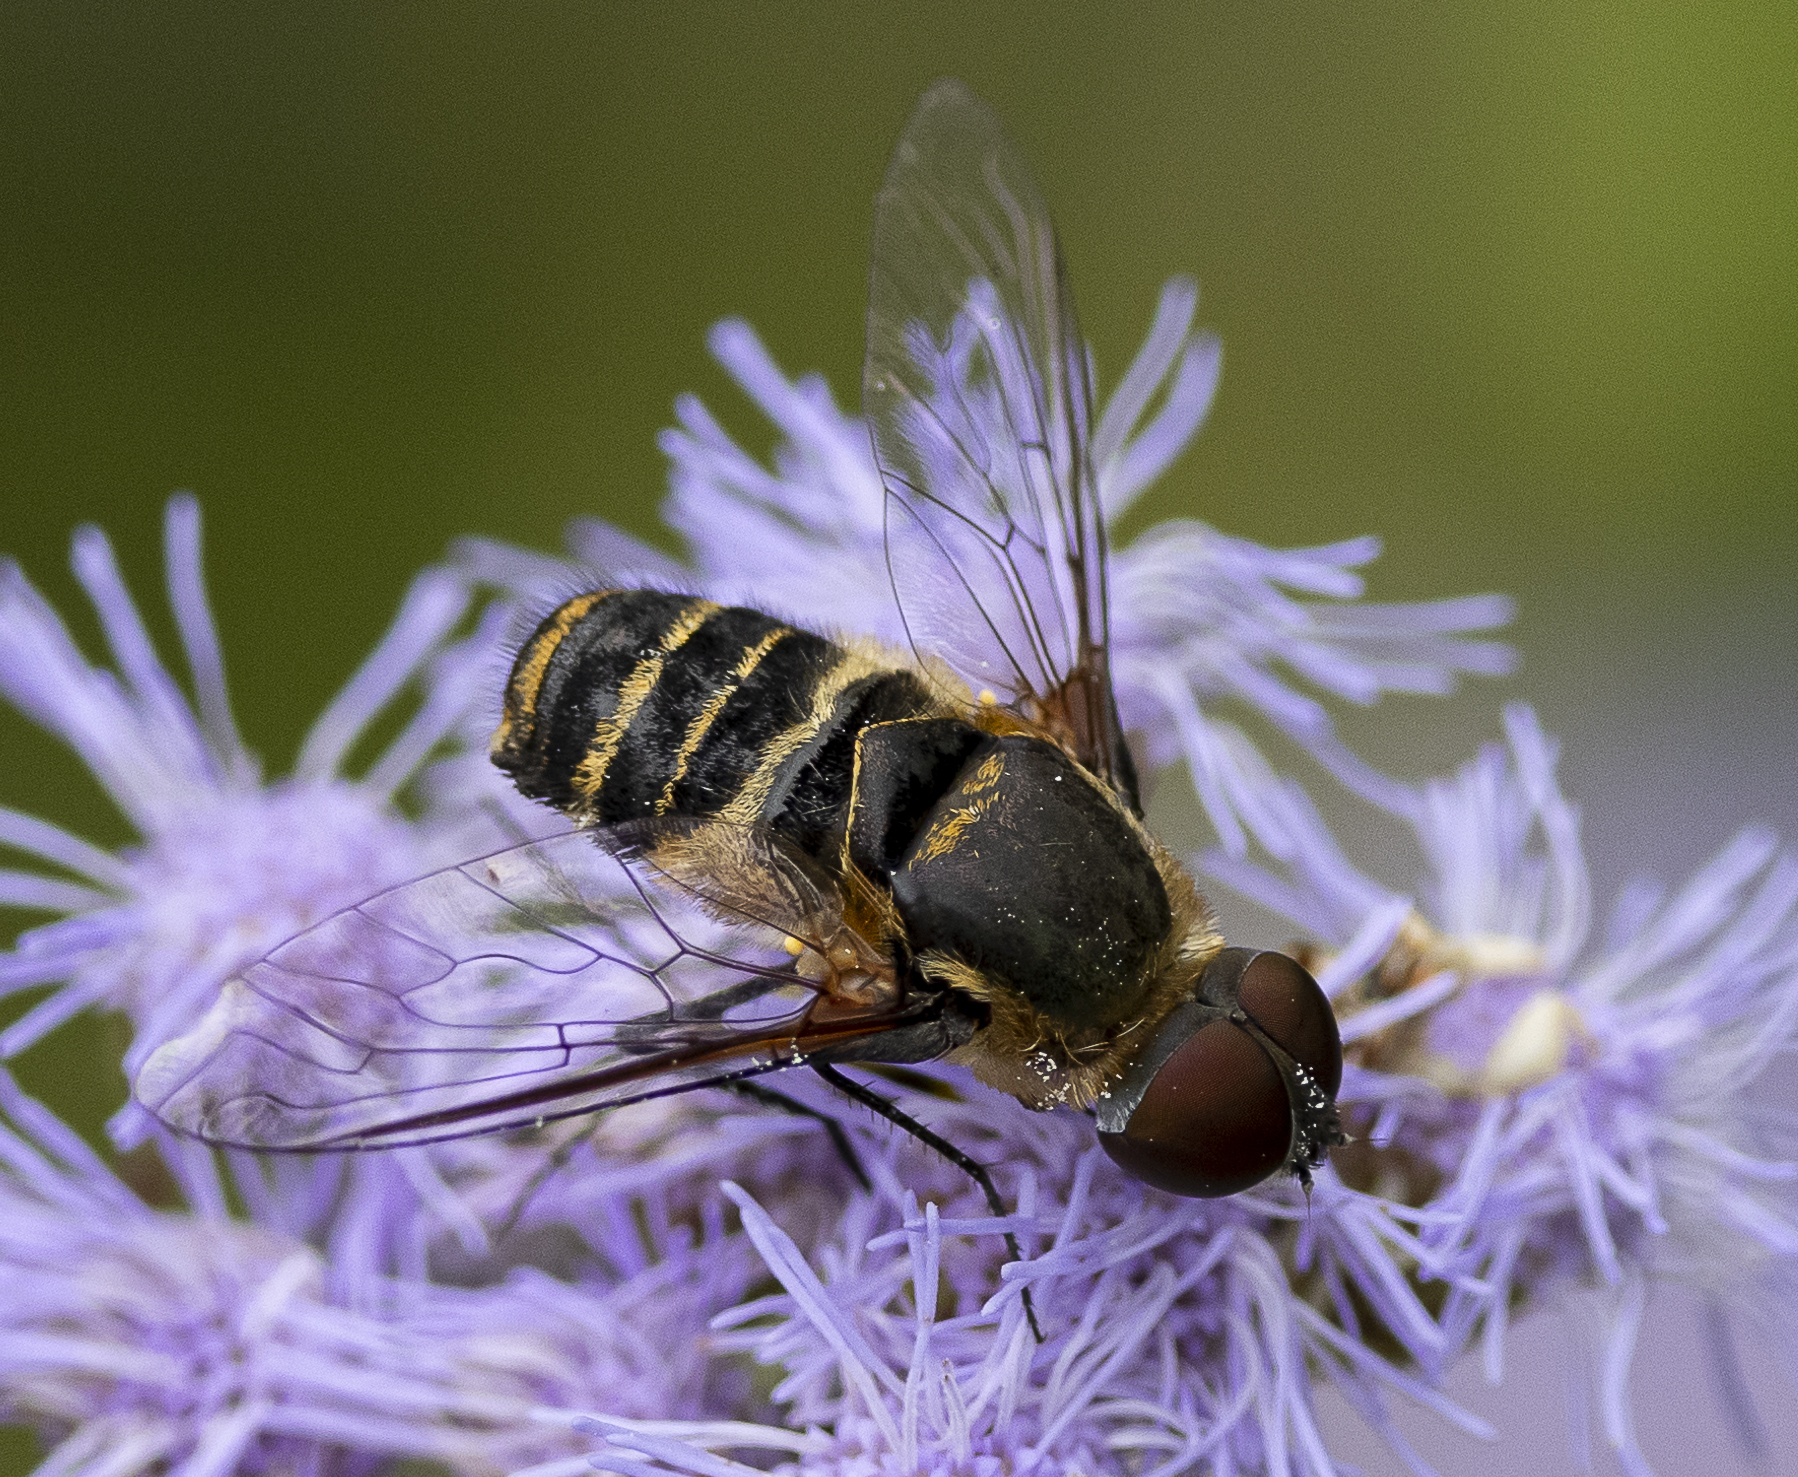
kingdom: Animalia
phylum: Arthropoda
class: Insecta
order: Diptera
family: Bombyliidae
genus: Villa
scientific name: Villa
